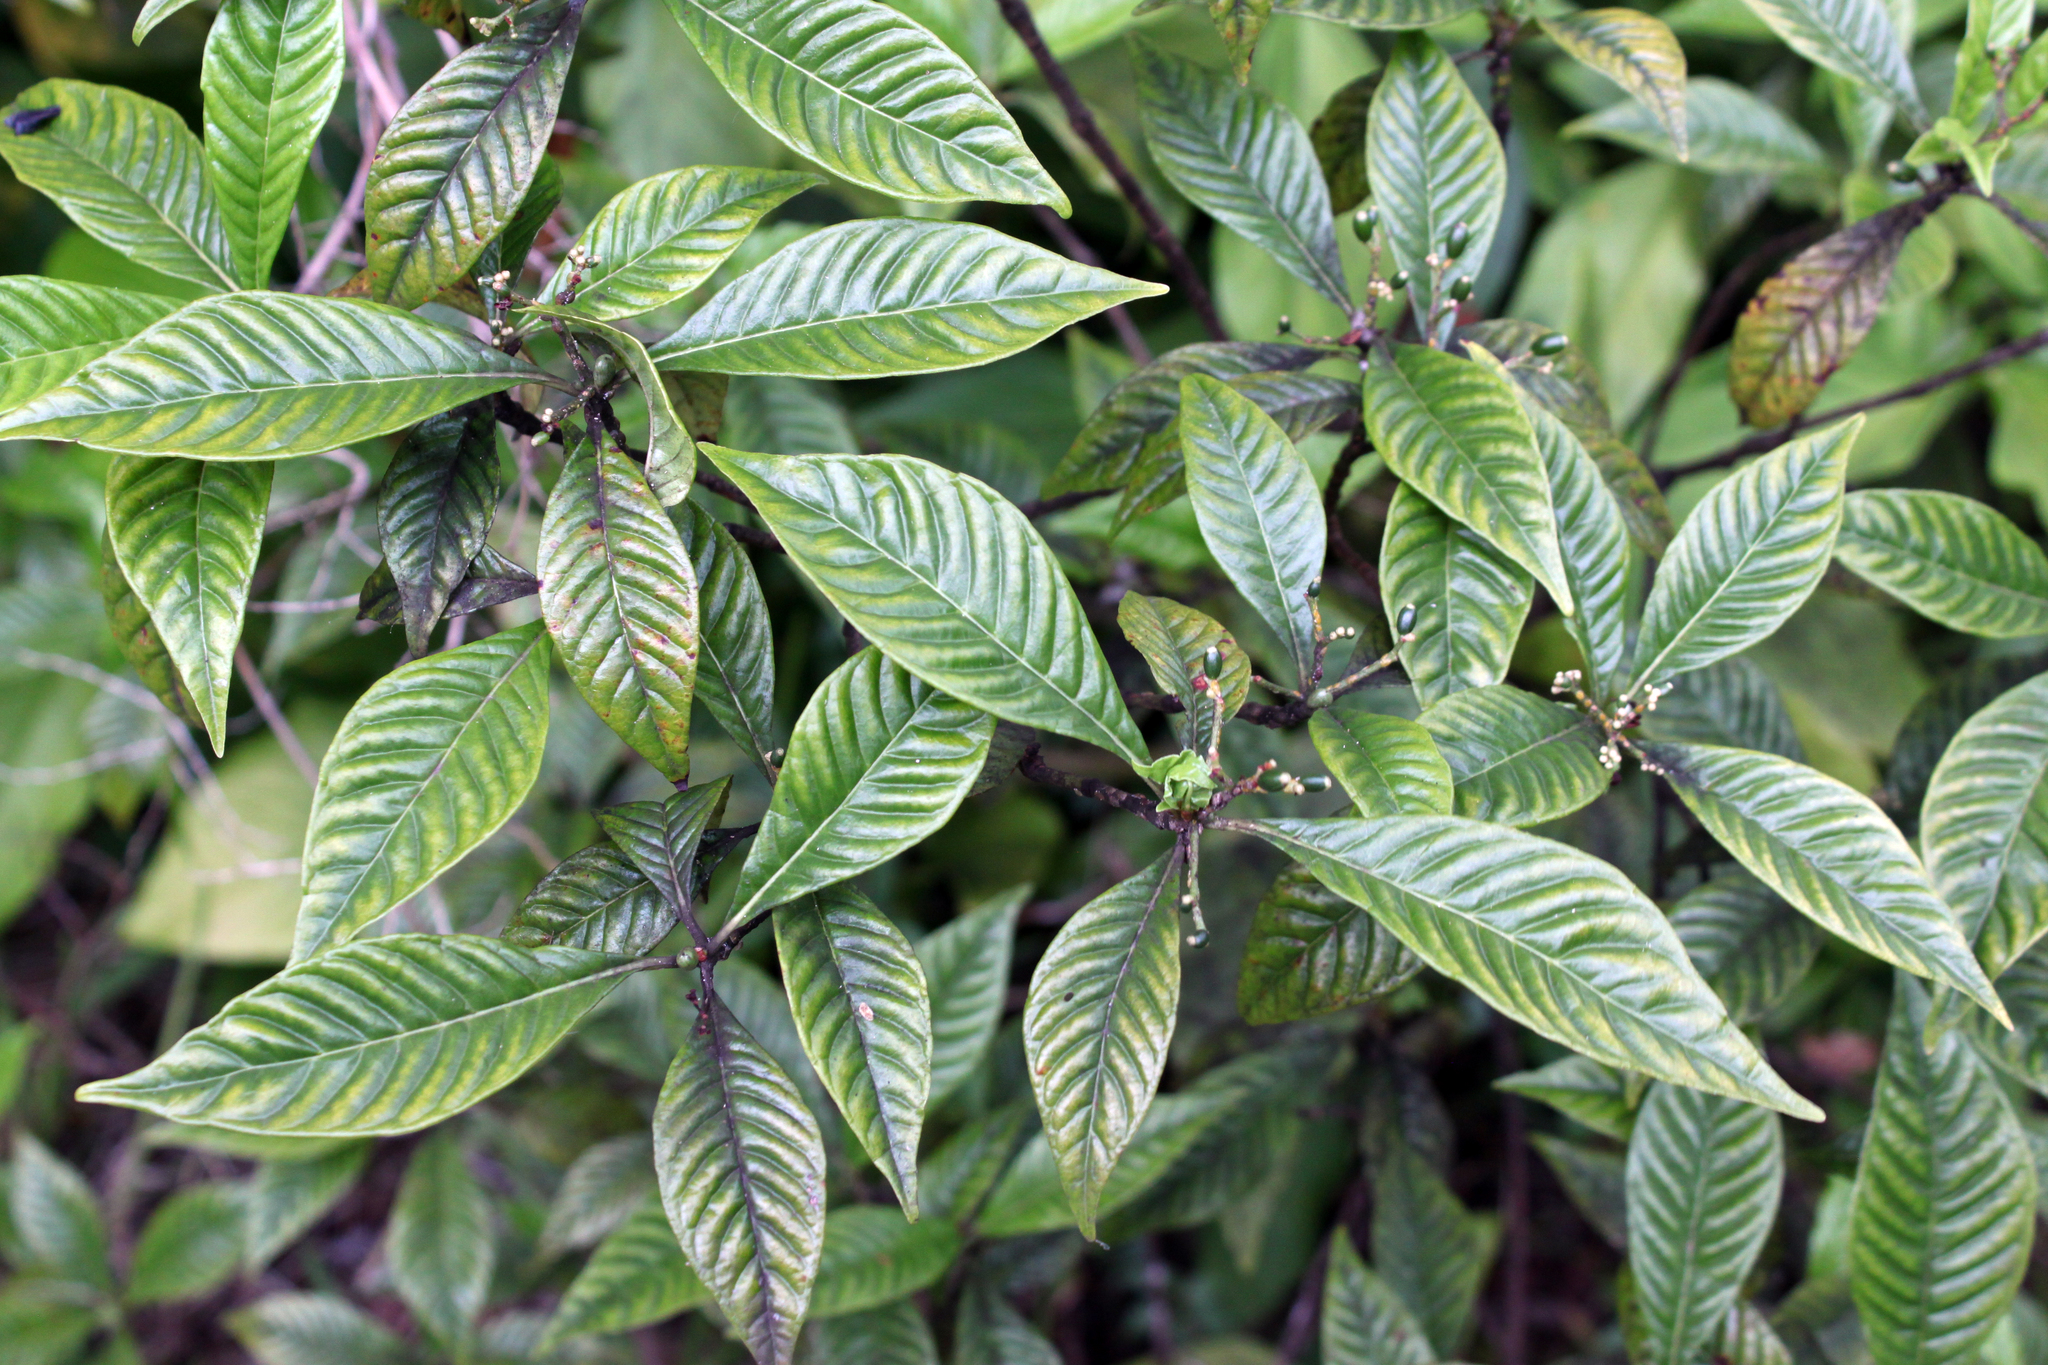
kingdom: Plantae
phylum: Tracheophyta
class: Magnoliopsida
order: Gentianales
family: Rubiaceae
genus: Psychotria
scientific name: Psychotria nervosa
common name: Bastard cankerberry
